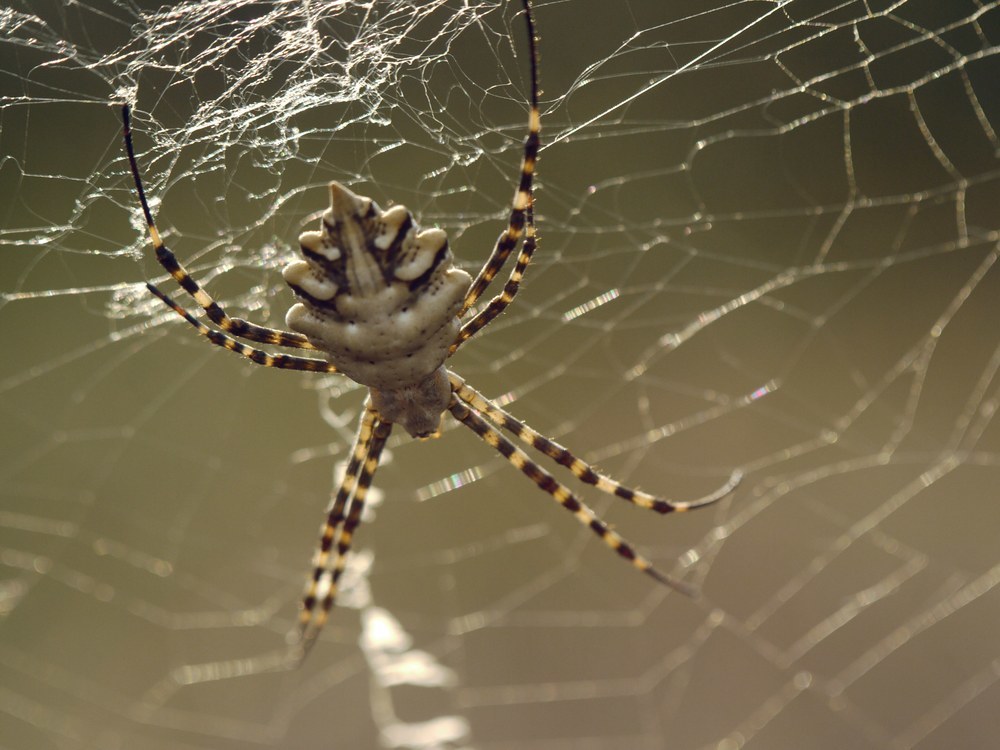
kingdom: Animalia
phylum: Arthropoda
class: Arachnida
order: Araneae
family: Araneidae
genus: Argiope
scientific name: Argiope lobata
